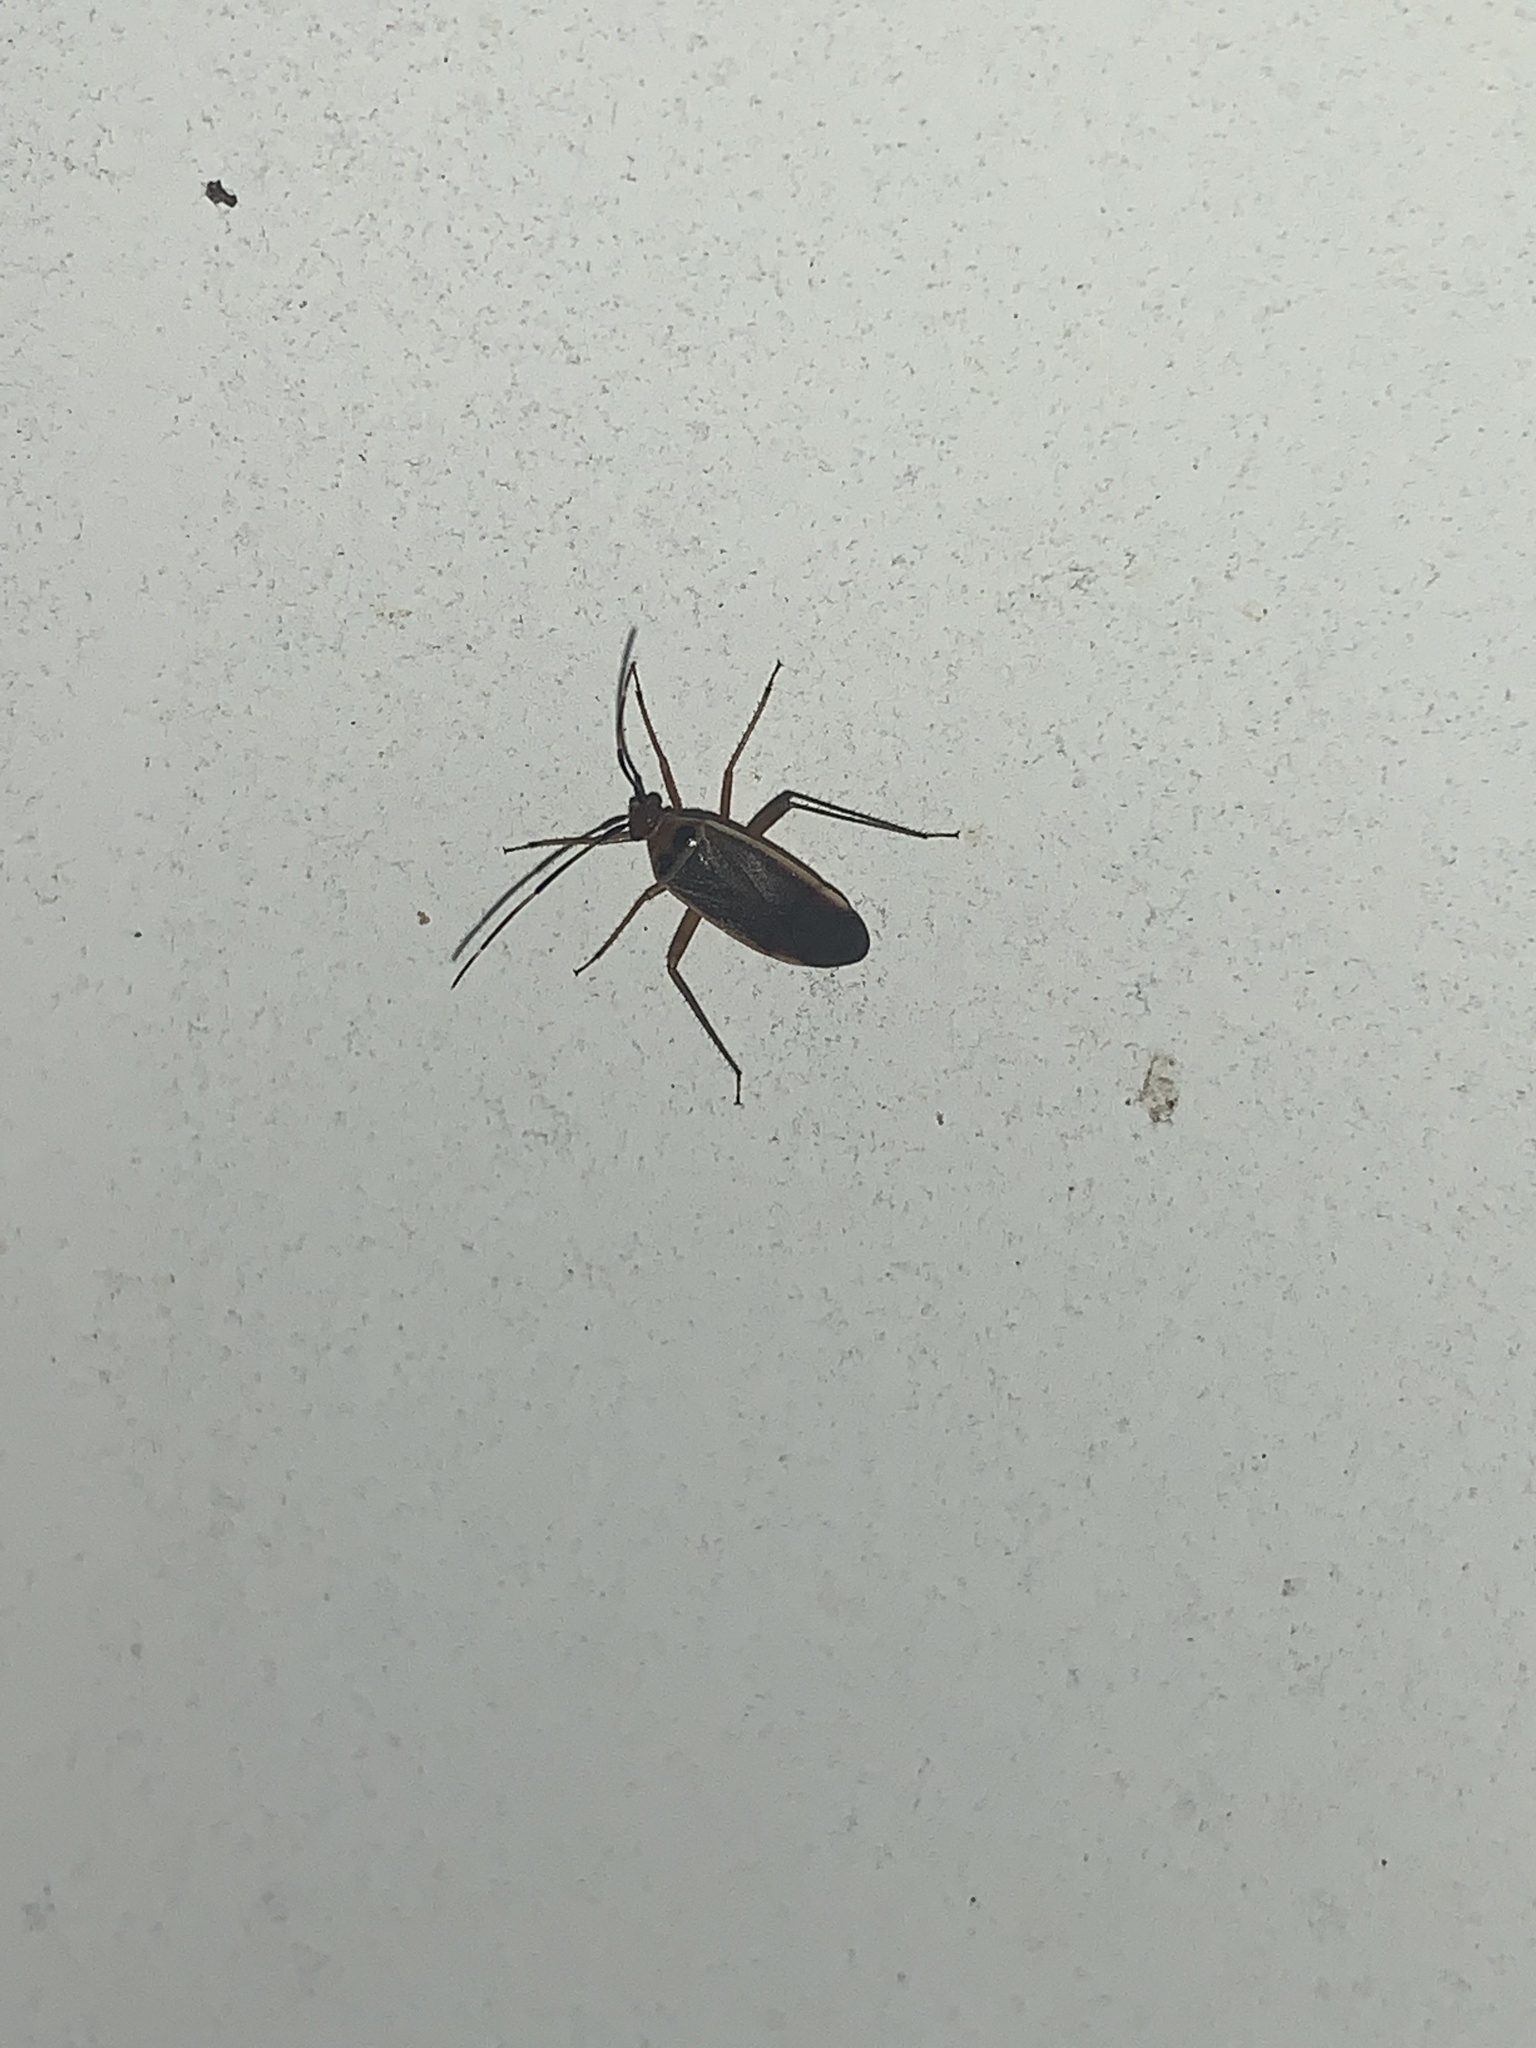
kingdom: Animalia
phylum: Arthropoda
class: Insecta
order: Hemiptera
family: Miridae
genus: Adelphocoris
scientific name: Adelphocoris rapidus
